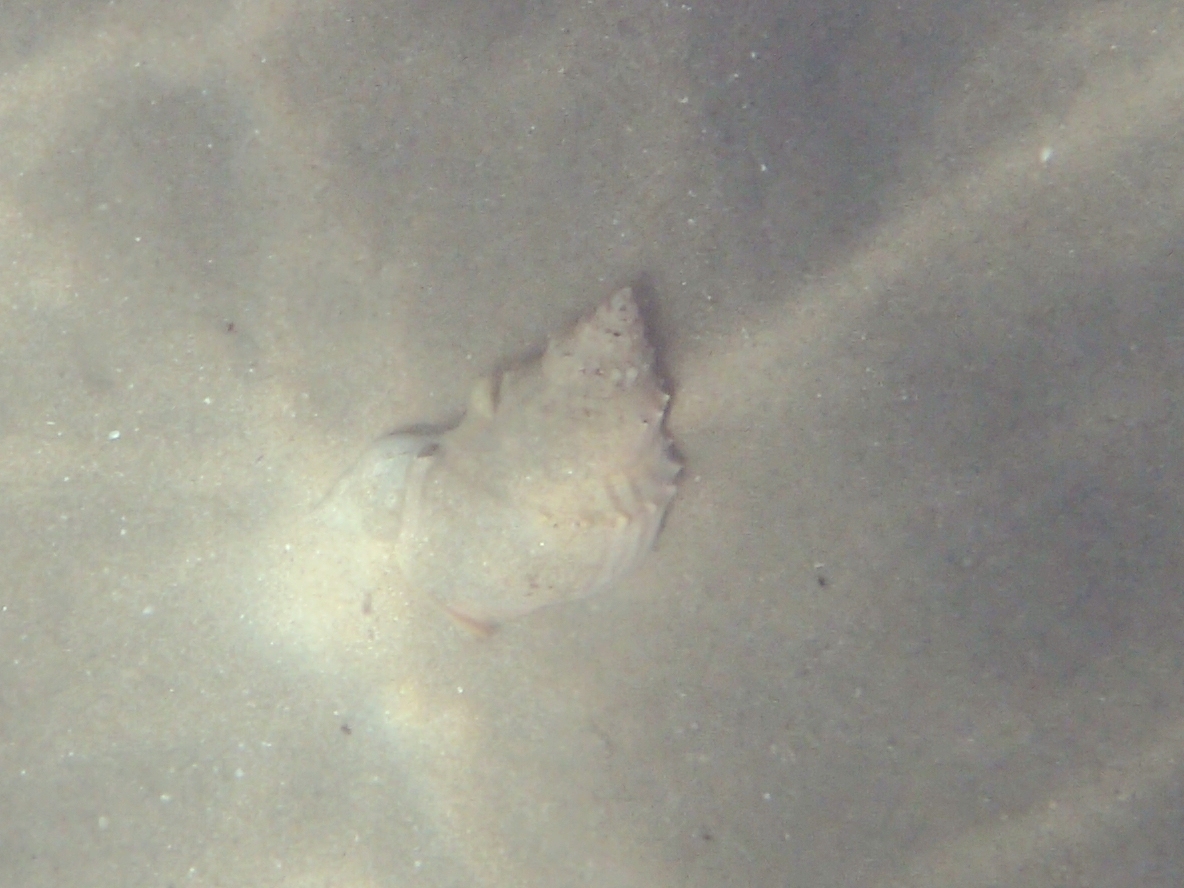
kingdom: Animalia
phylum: Mollusca
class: Gastropoda
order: Littorinimorpha
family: Struthiolariidae
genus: Struthiolaria
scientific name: Struthiolaria papulosa
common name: Large ostrich foot
